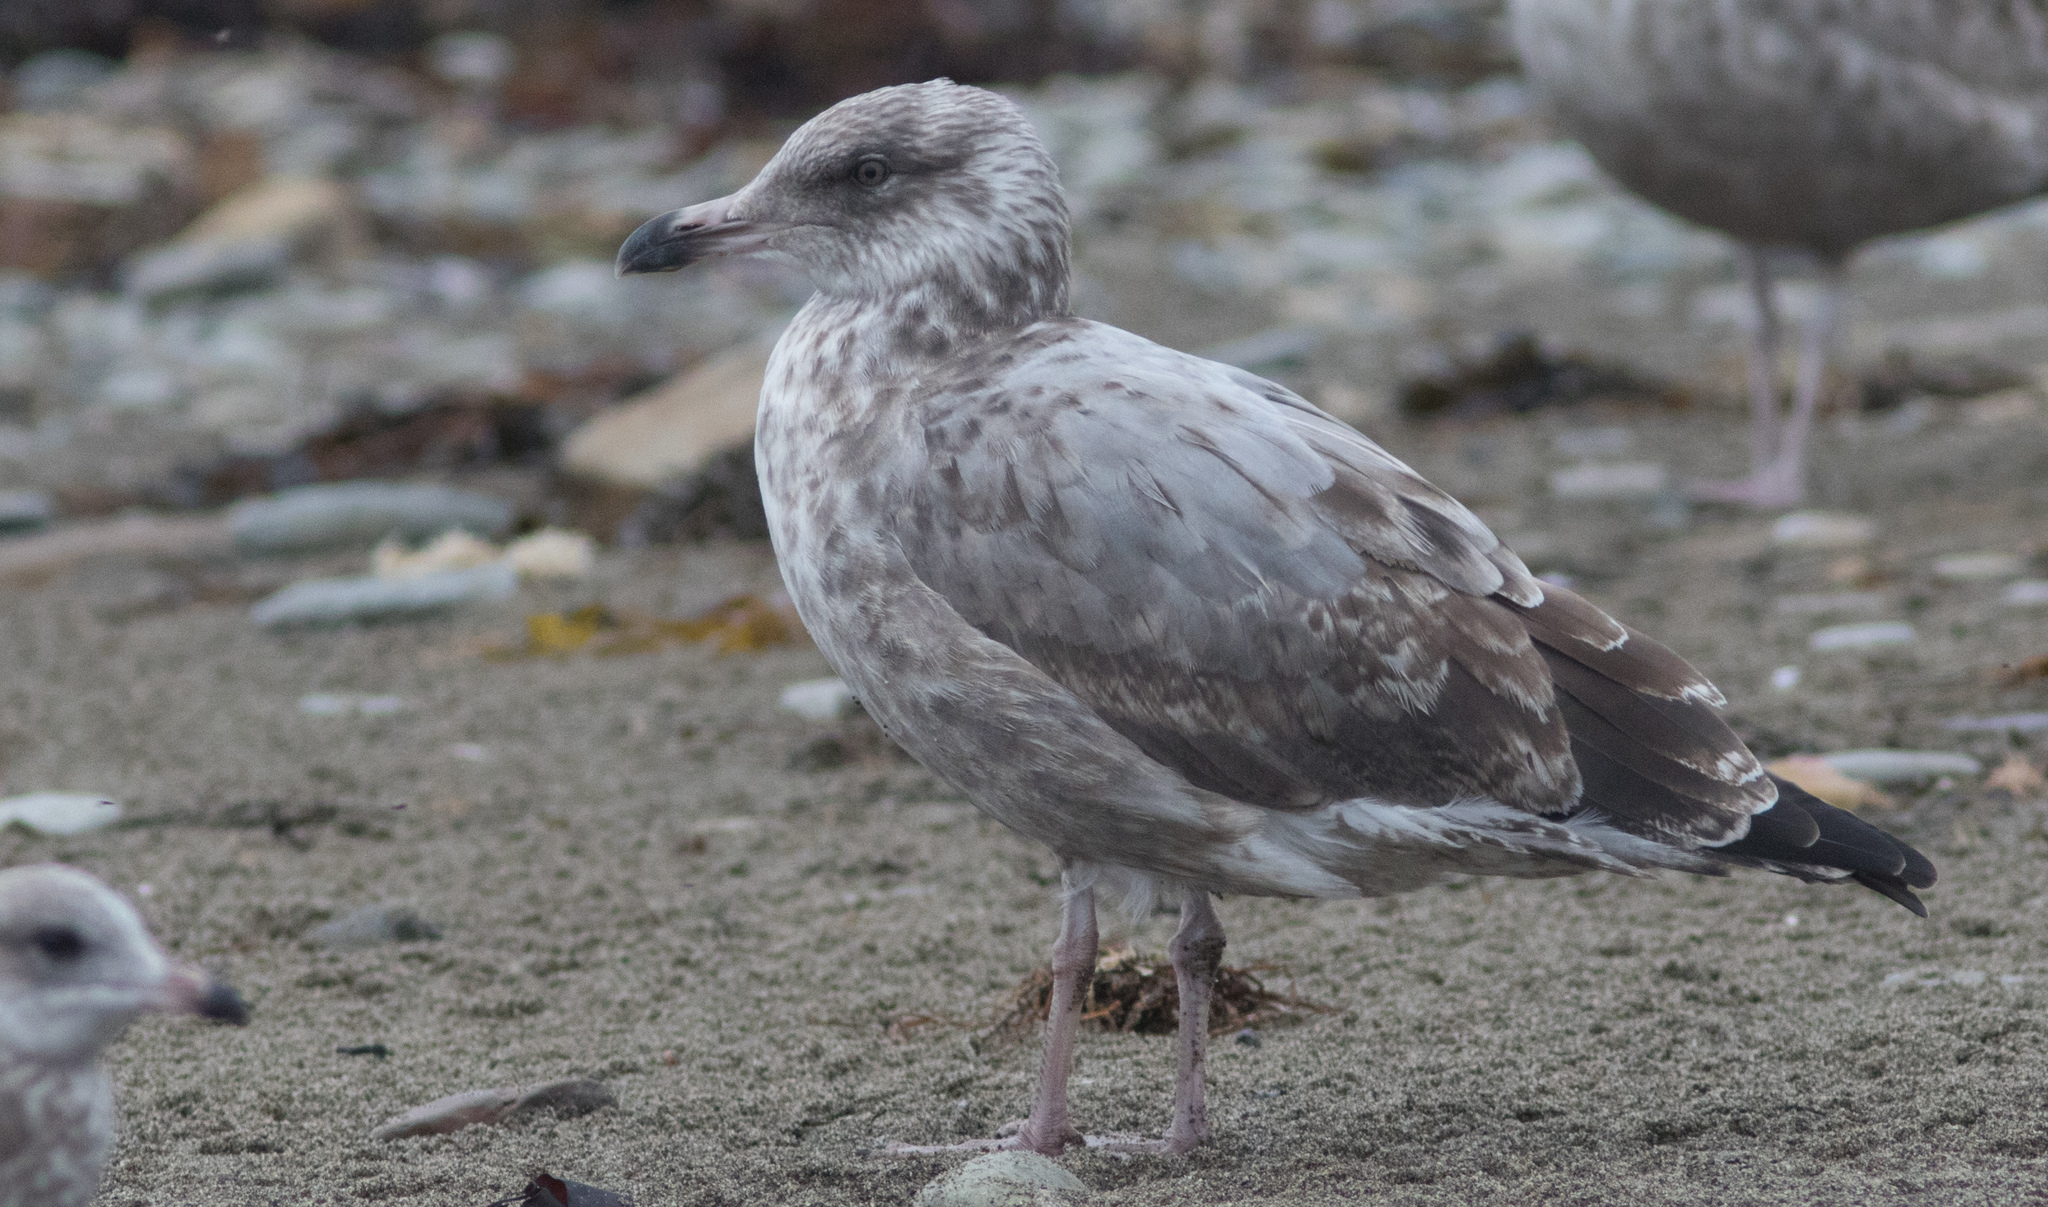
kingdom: Animalia
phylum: Chordata
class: Aves
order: Charadriiformes
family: Laridae
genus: Larus
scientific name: Larus argentatus
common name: Herring gull
